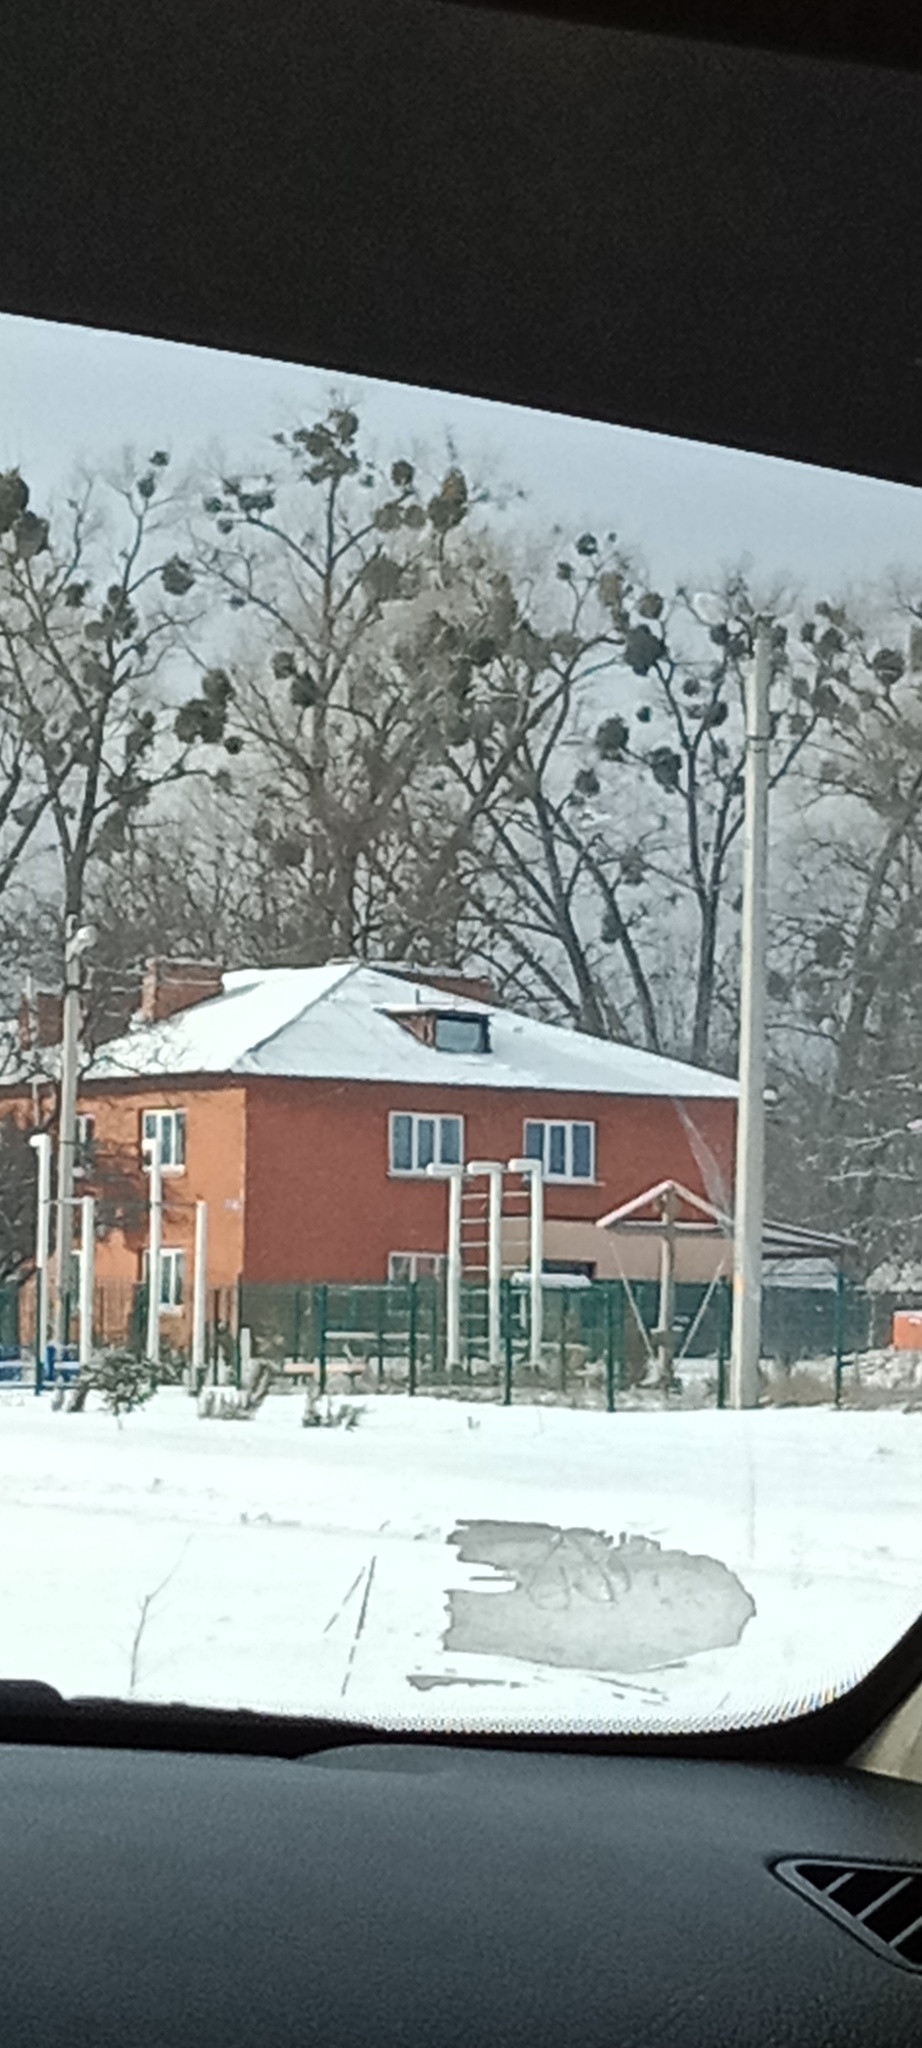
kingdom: Plantae
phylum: Tracheophyta
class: Magnoliopsida
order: Santalales
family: Viscaceae
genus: Viscum
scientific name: Viscum album
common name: Mistletoe
